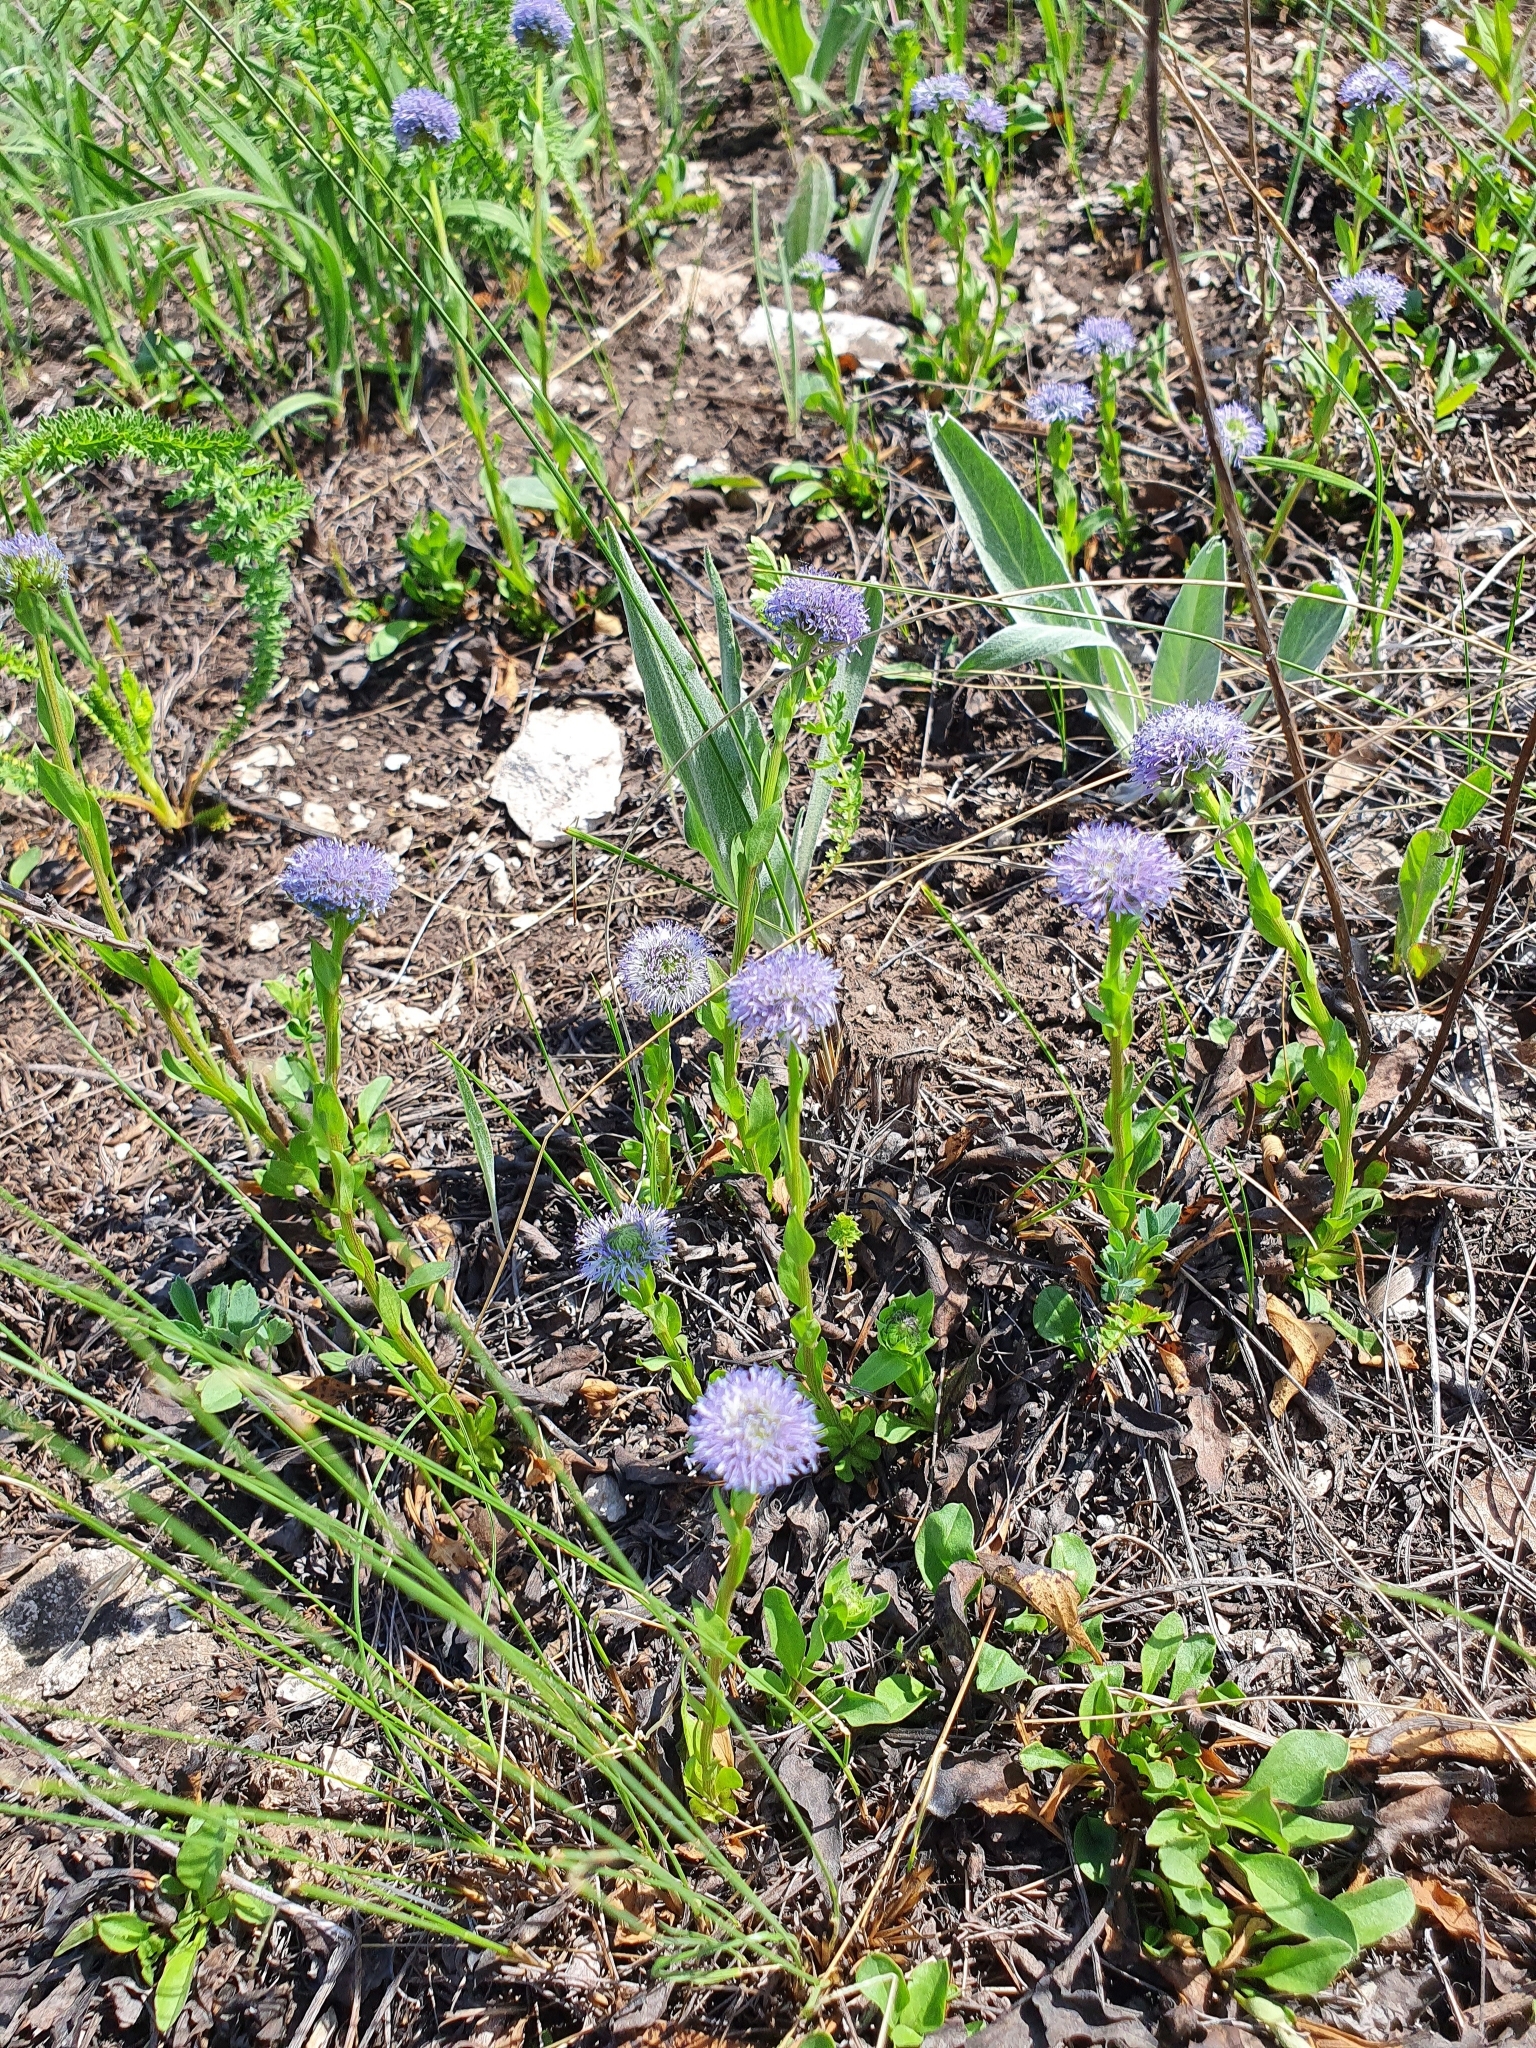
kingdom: Plantae
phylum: Tracheophyta
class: Magnoliopsida
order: Lamiales
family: Plantaginaceae
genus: Globularia
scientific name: Globularia bisnagarica
